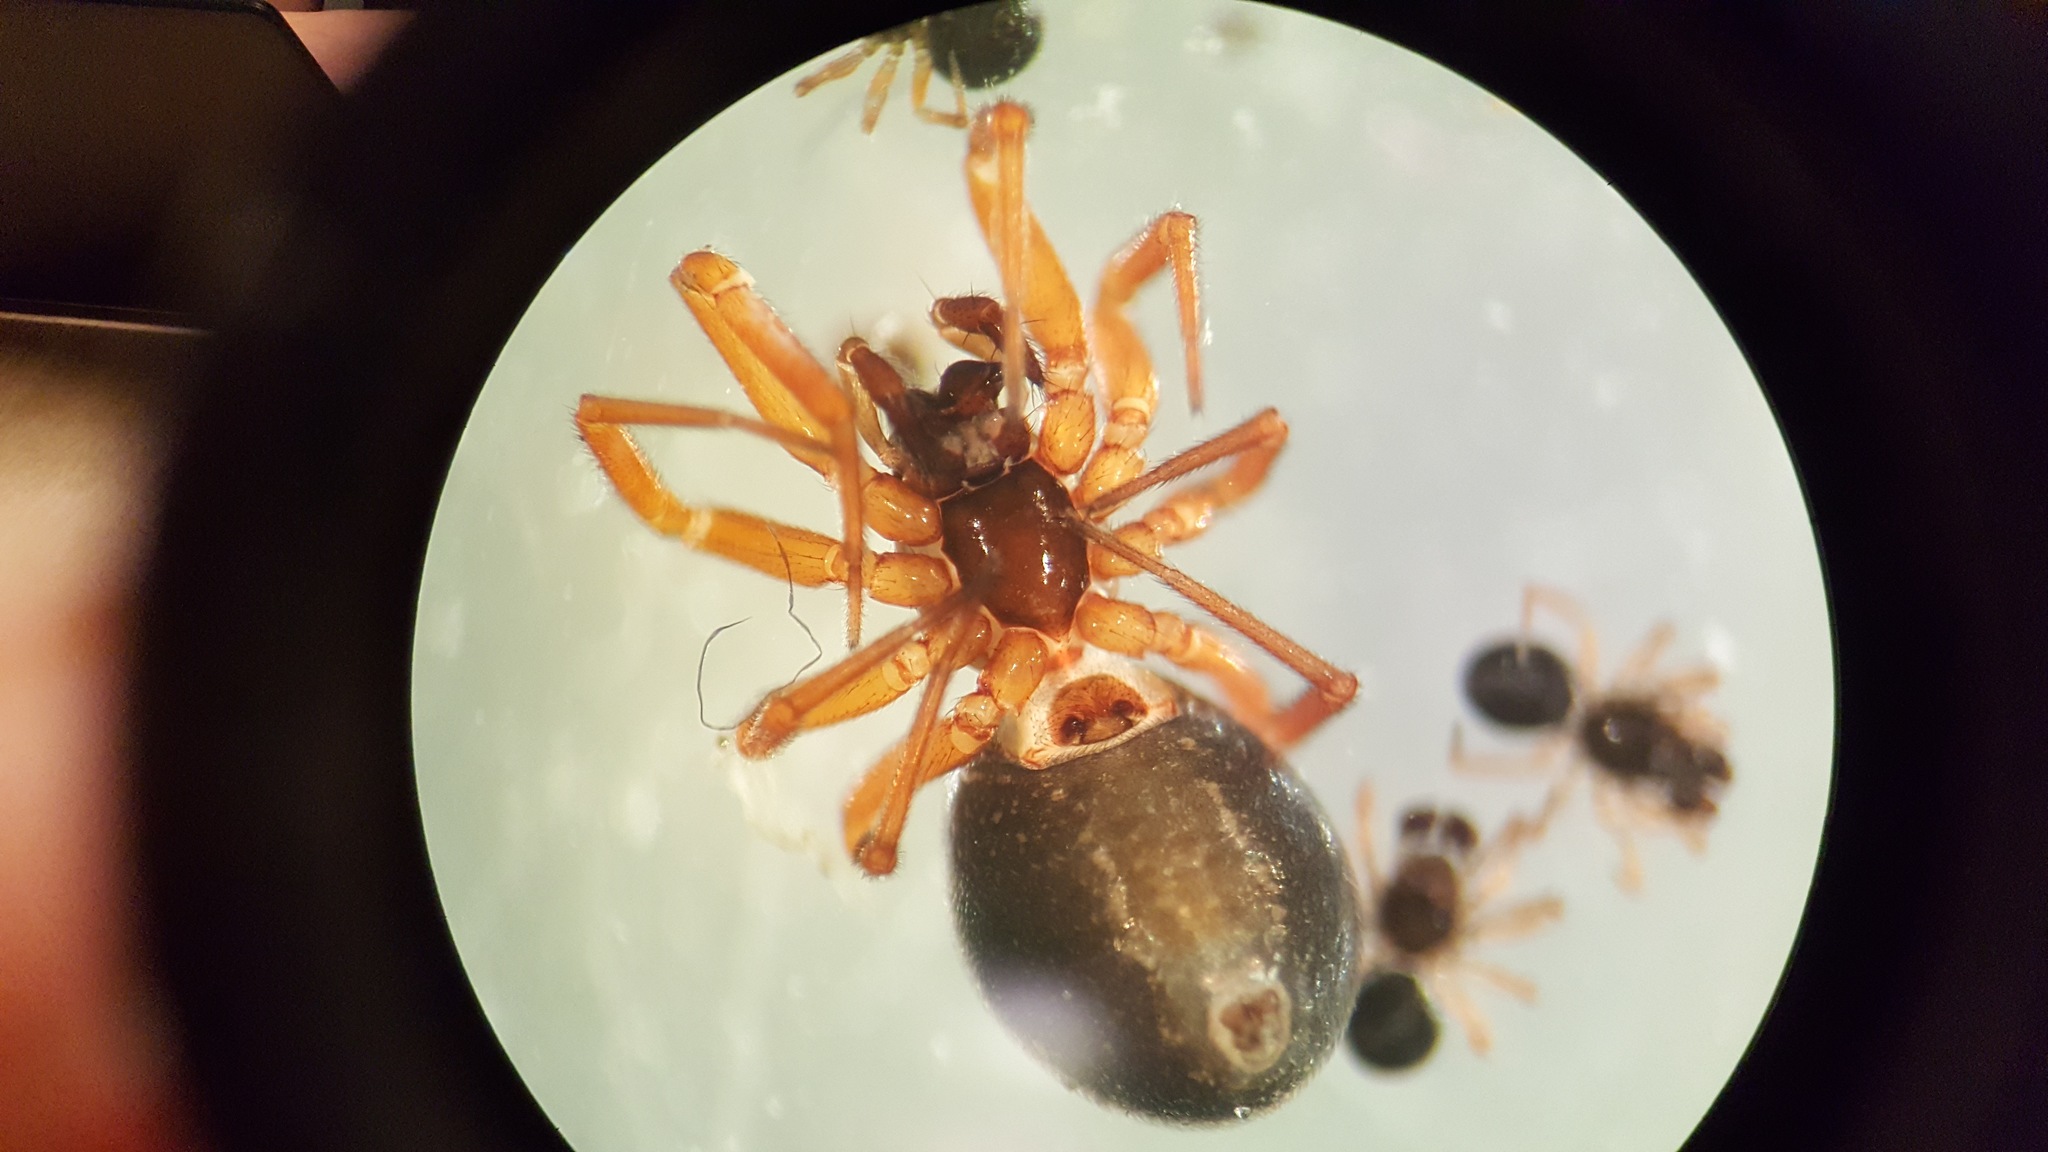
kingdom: Animalia
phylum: Arthropoda
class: Arachnida
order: Araneae
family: Linyphiidae
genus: Walckenaeria
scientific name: Walckenaeria acuminata
